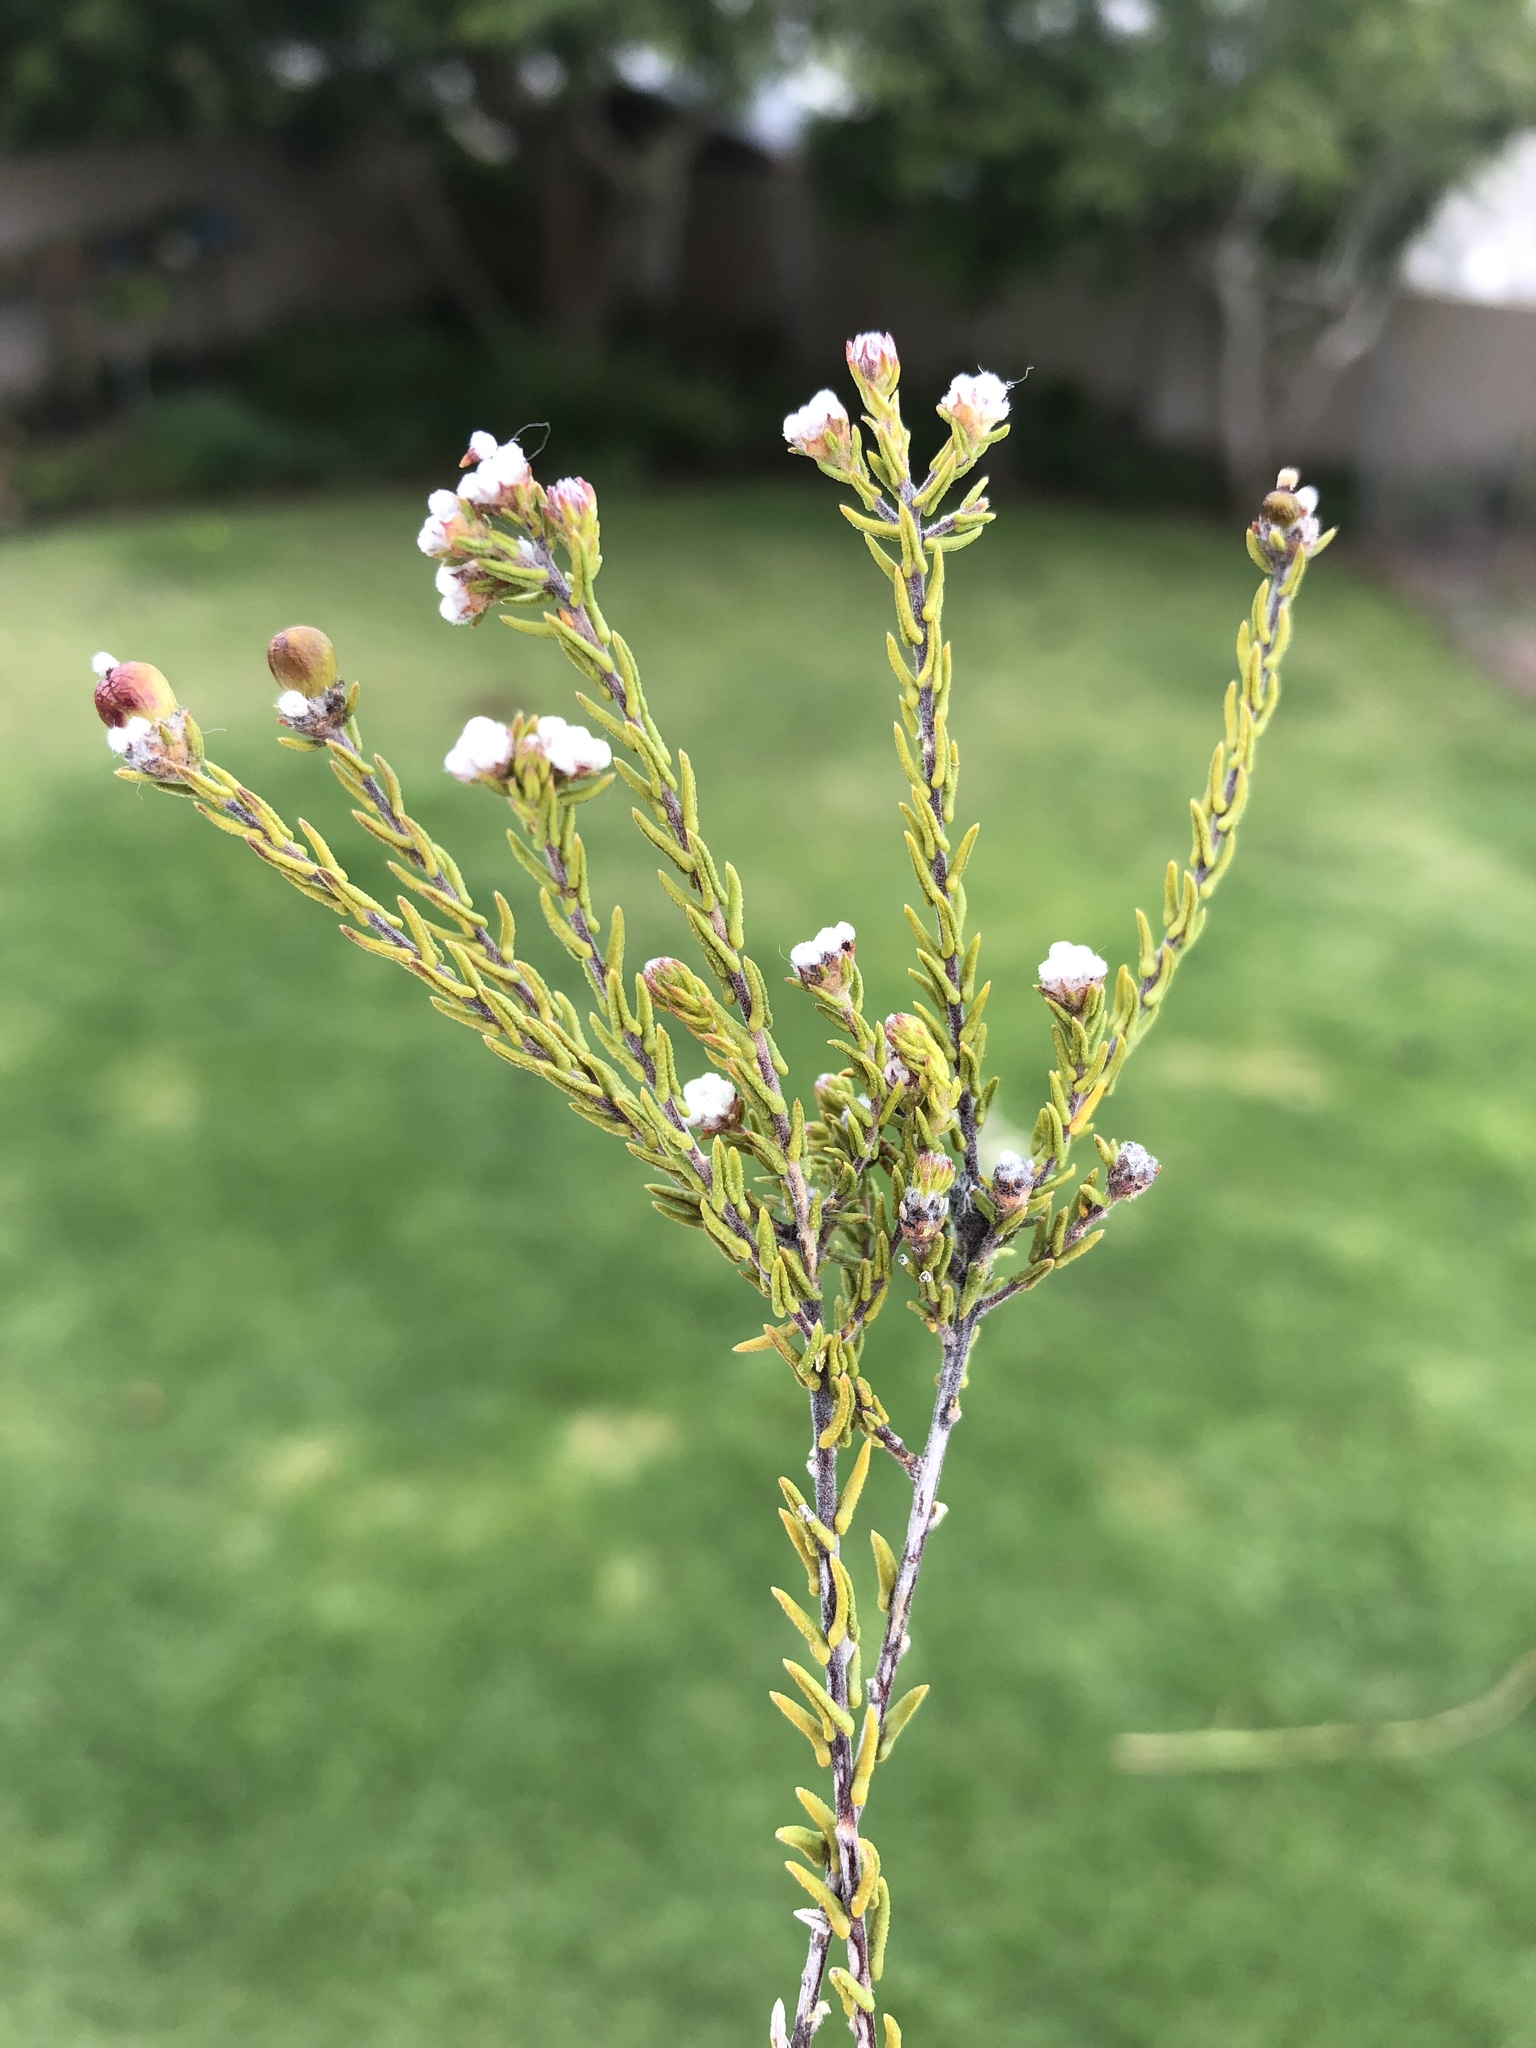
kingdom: Plantae
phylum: Tracheophyta
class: Magnoliopsida
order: Rosales
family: Rhamnaceae
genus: Phylica
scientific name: Phylica lanata
